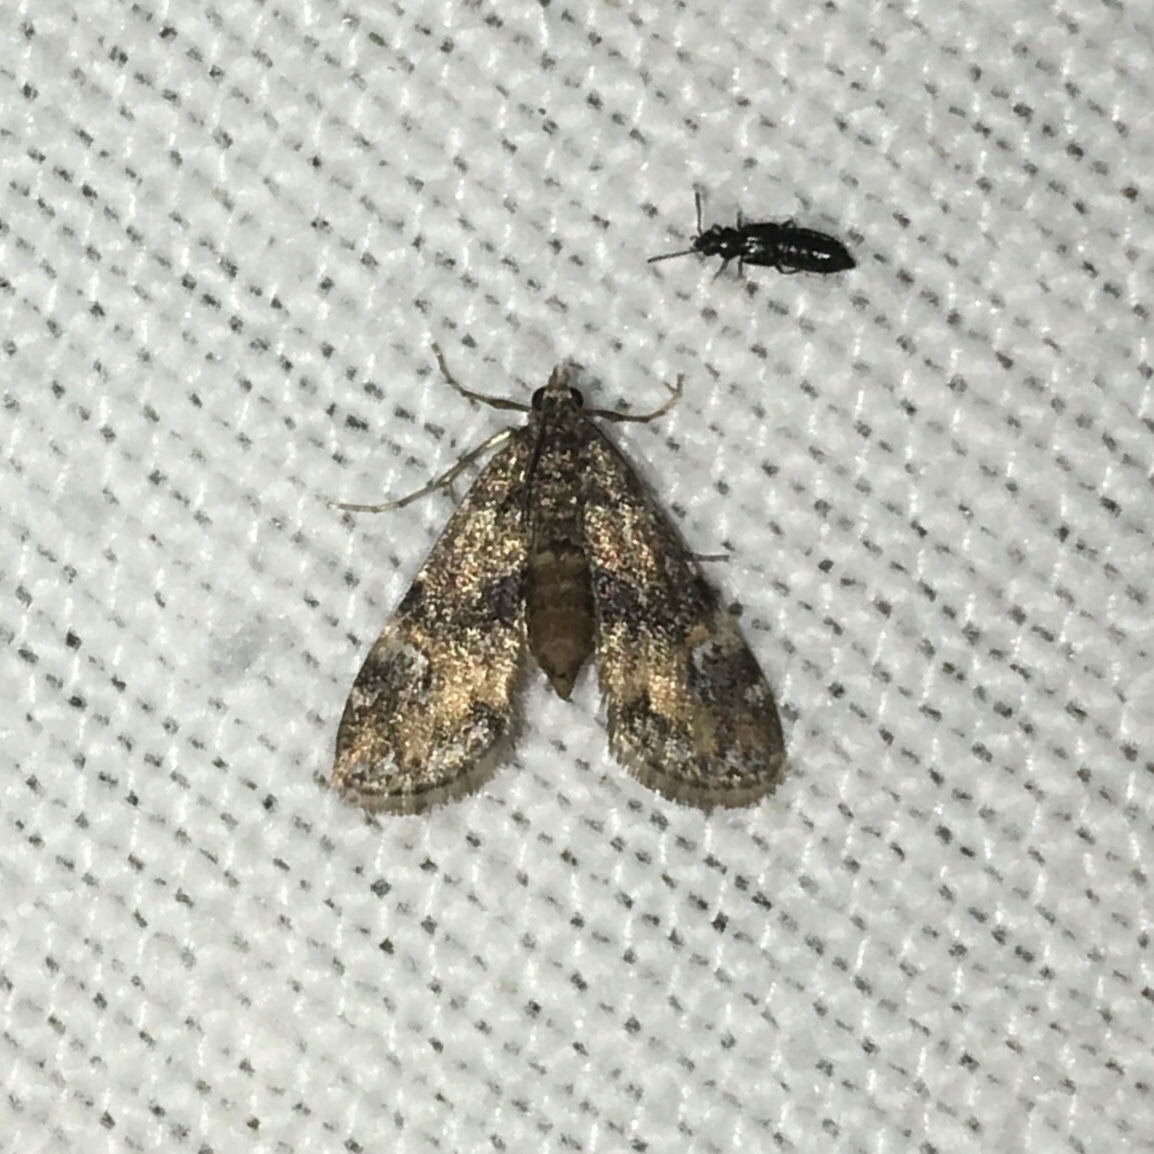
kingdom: Animalia
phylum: Arthropoda
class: Insecta
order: Lepidoptera
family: Crambidae
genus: Elophila
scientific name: Elophila obliteralis
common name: Waterlily leafcutter moth
